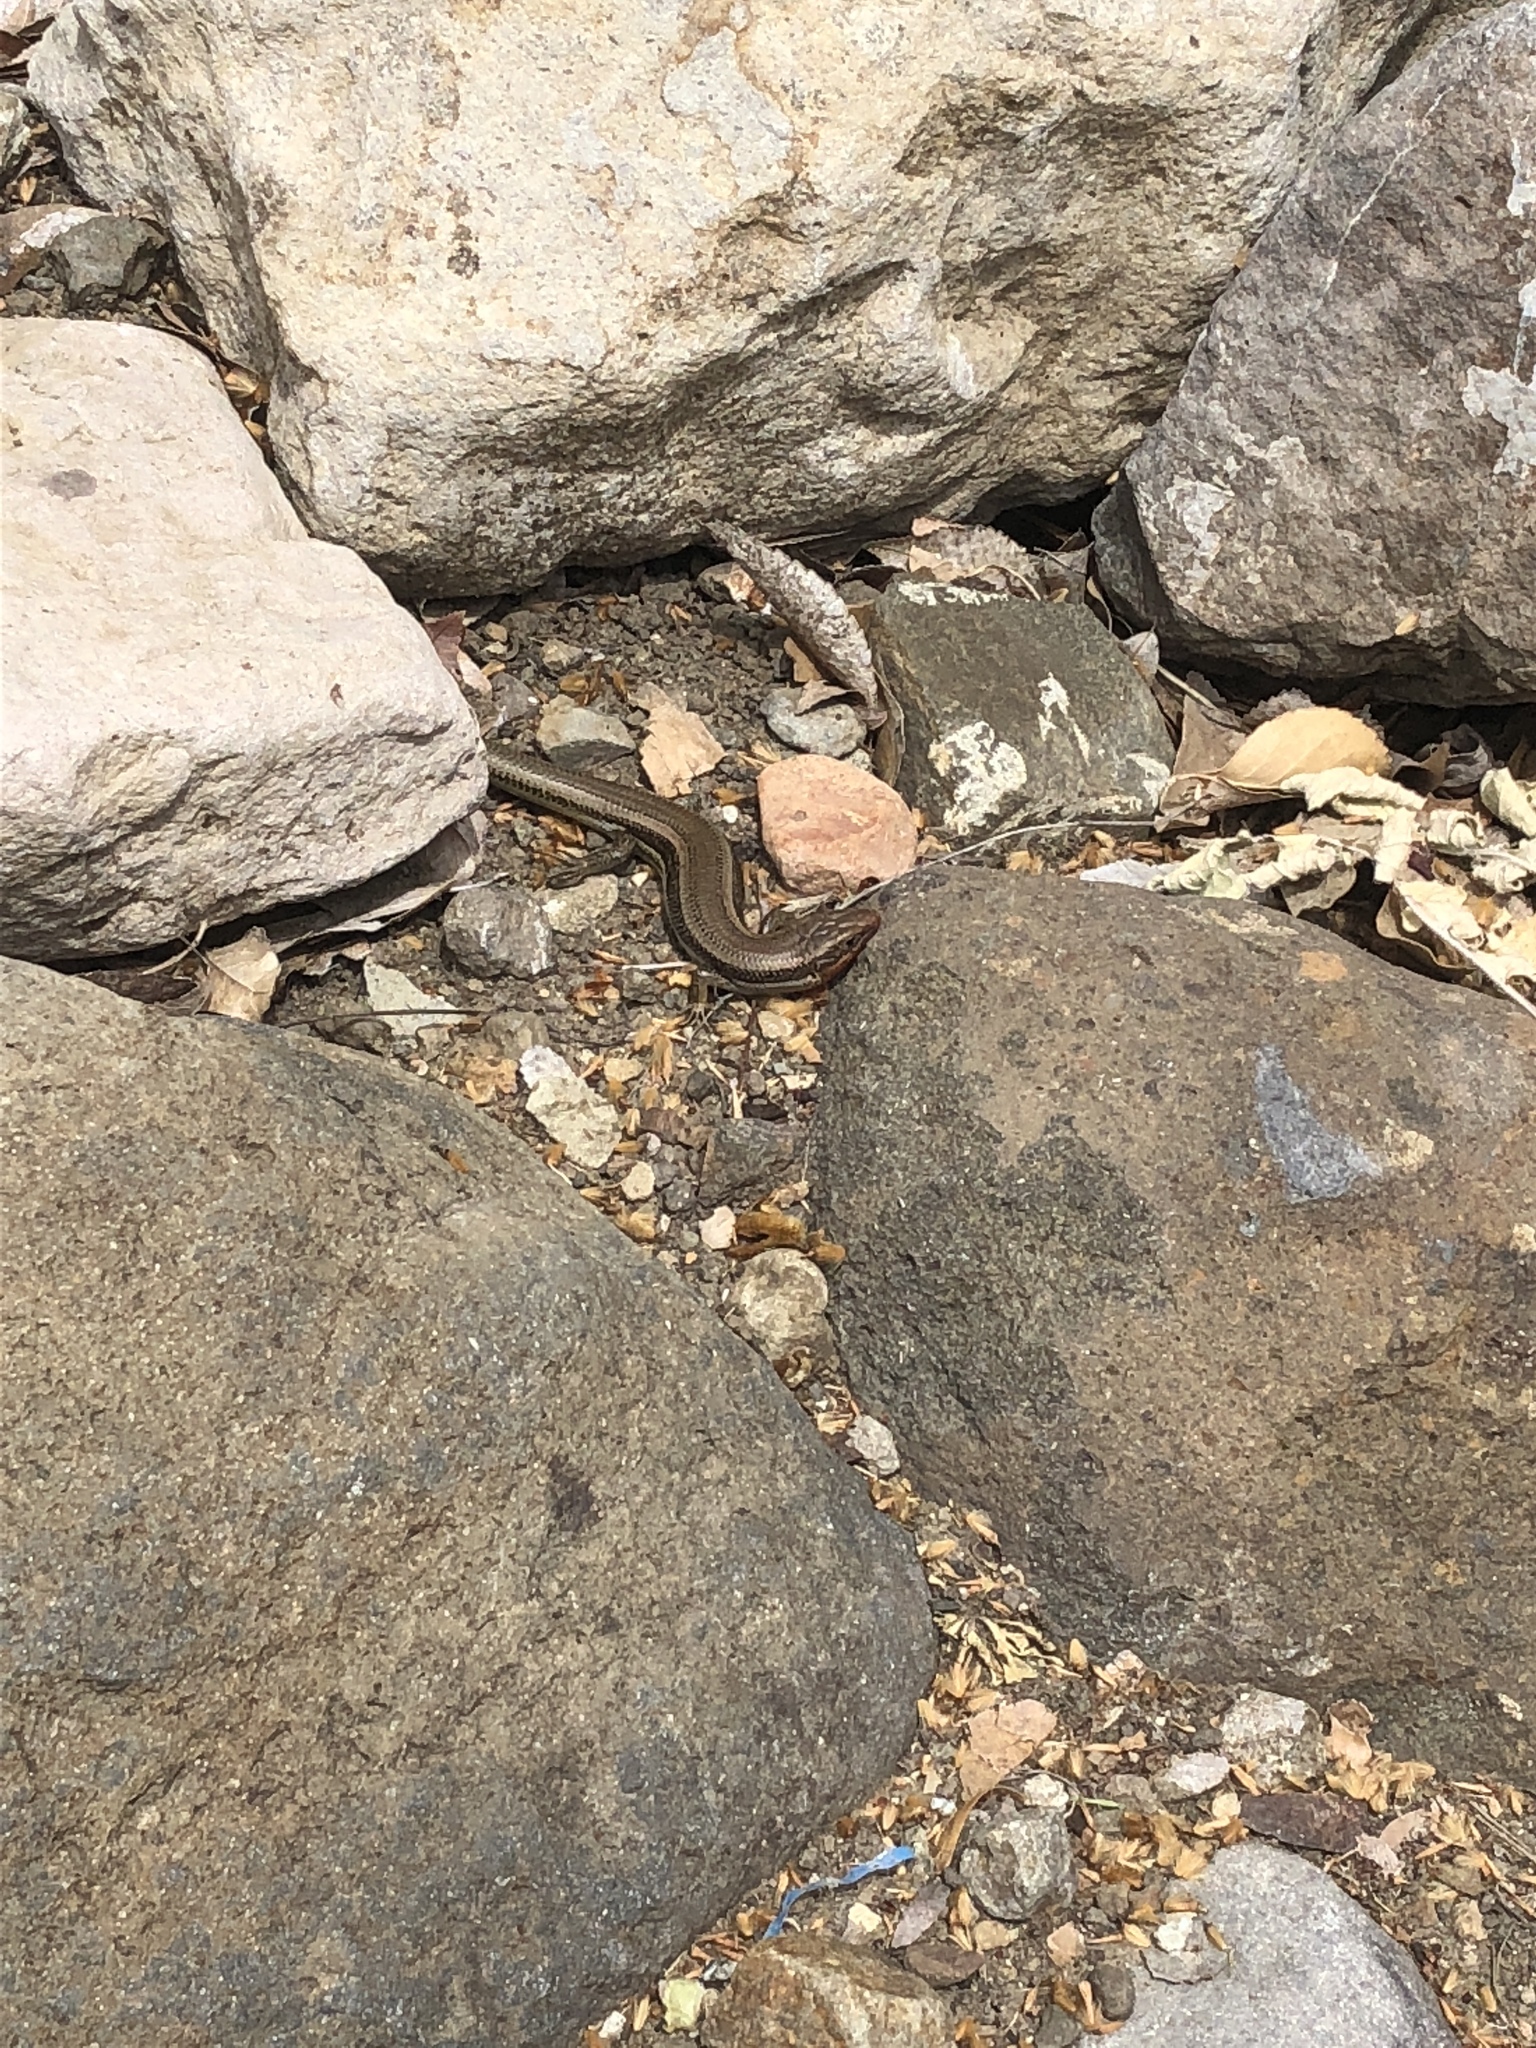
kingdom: Animalia
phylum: Chordata
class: Squamata
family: Scincidae
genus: Plestiodon
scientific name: Plestiodon skiltonianus
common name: Coronado island skink [interparietalis]
